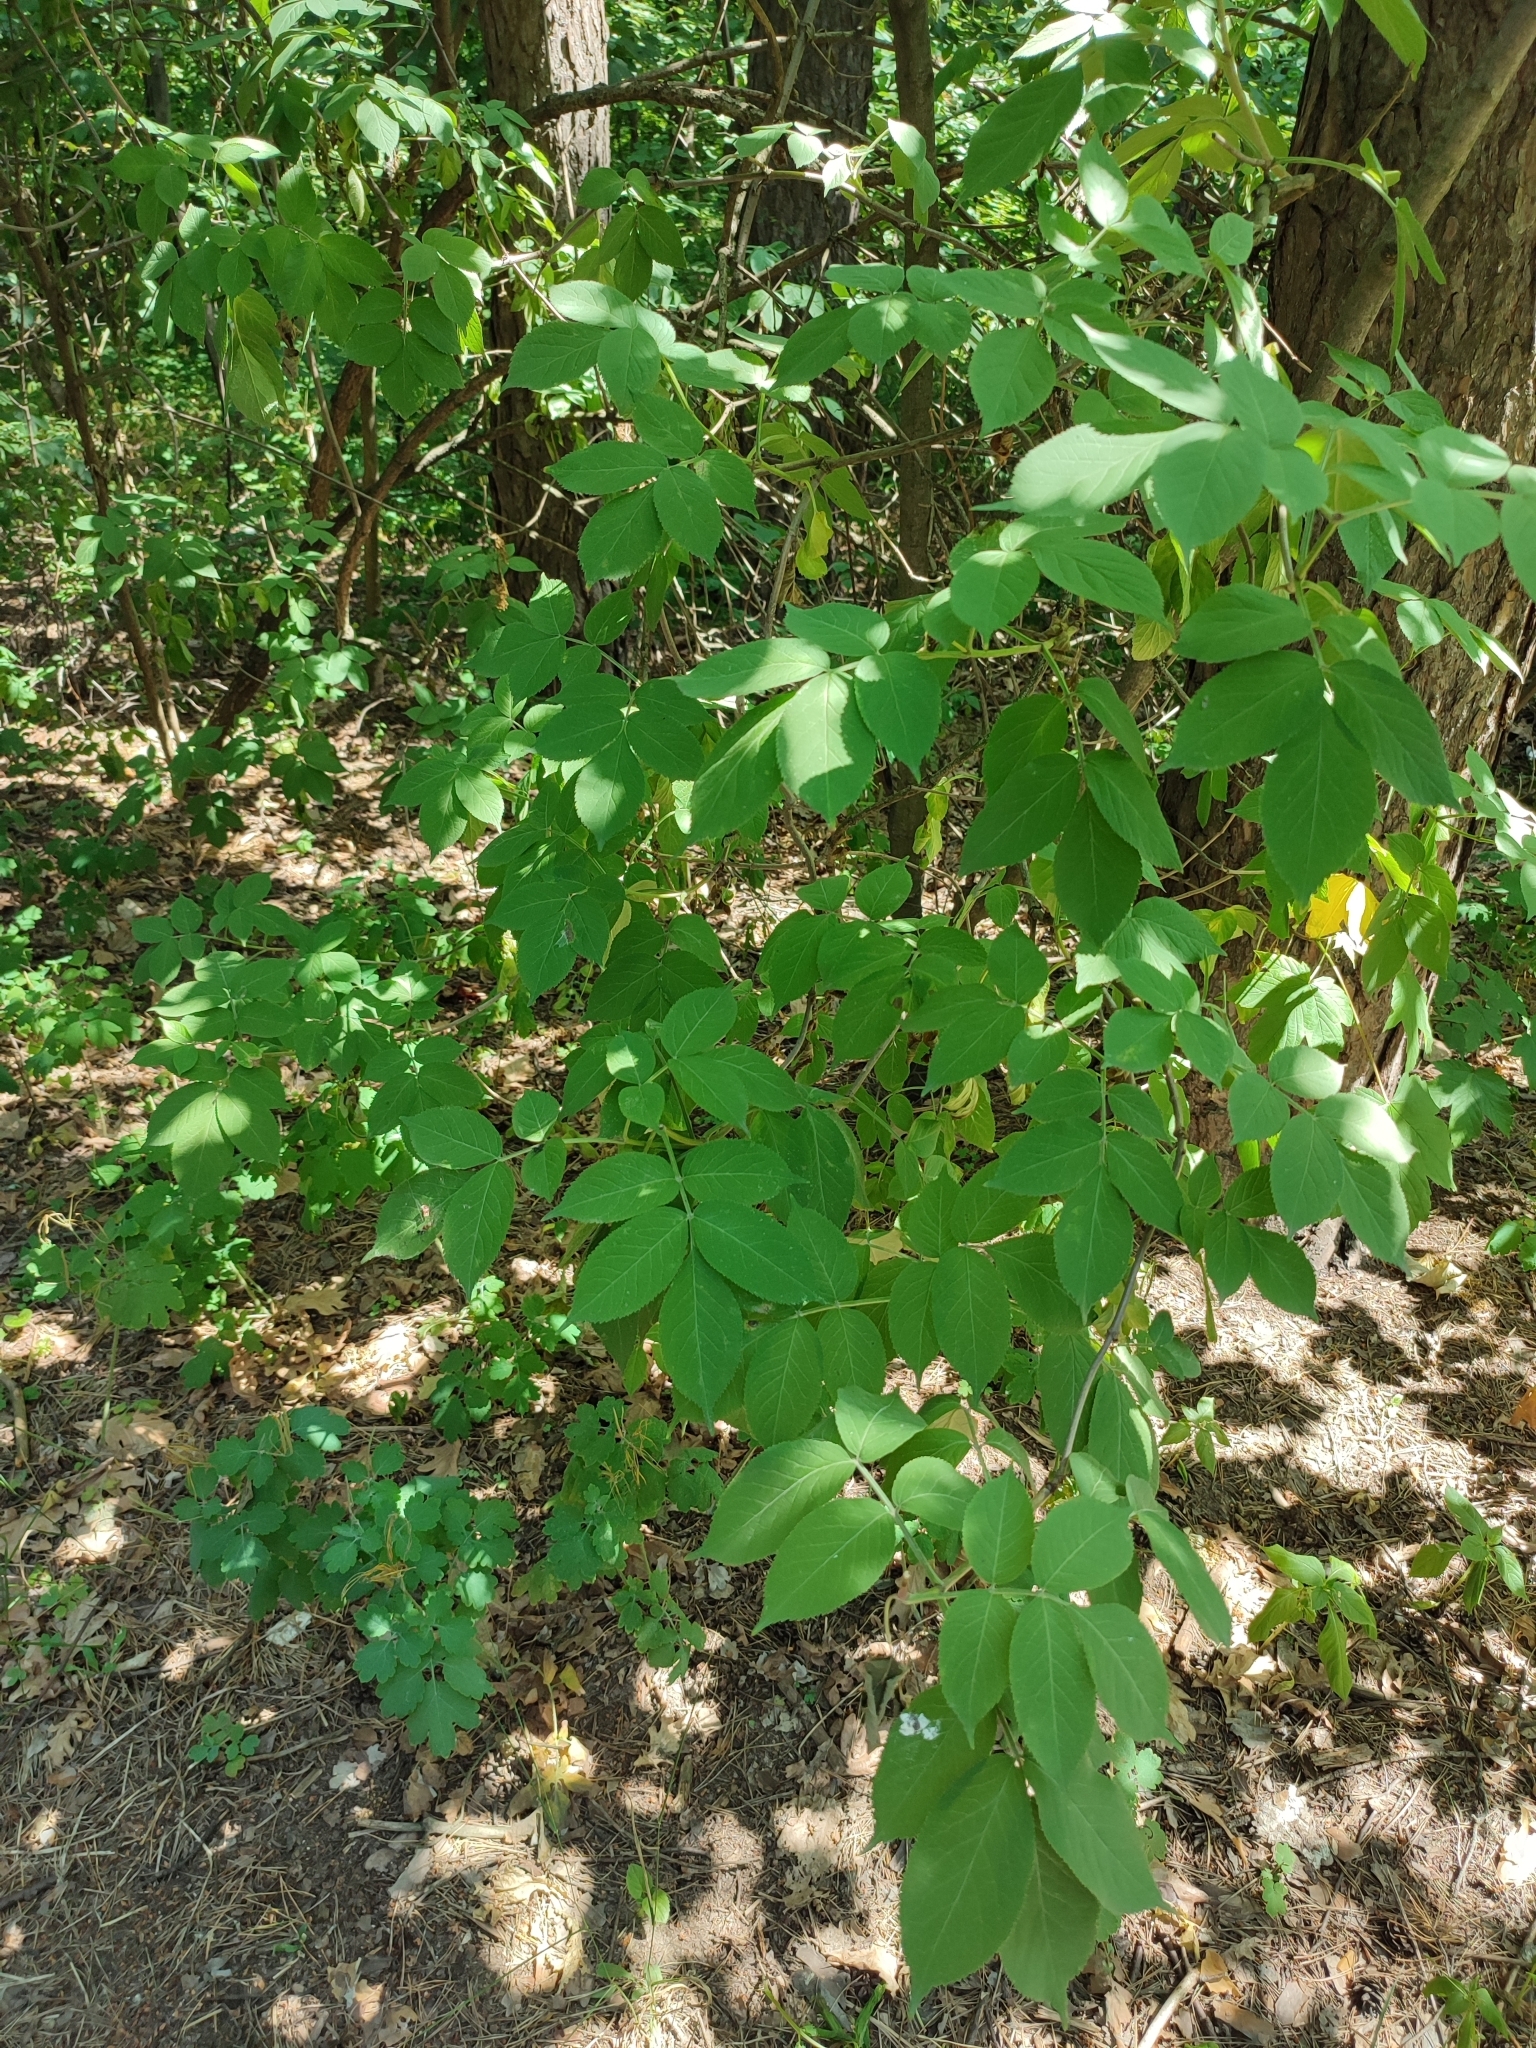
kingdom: Plantae
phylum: Tracheophyta
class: Magnoliopsida
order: Dipsacales
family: Viburnaceae
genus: Sambucus
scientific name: Sambucus nigra
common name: Elder
